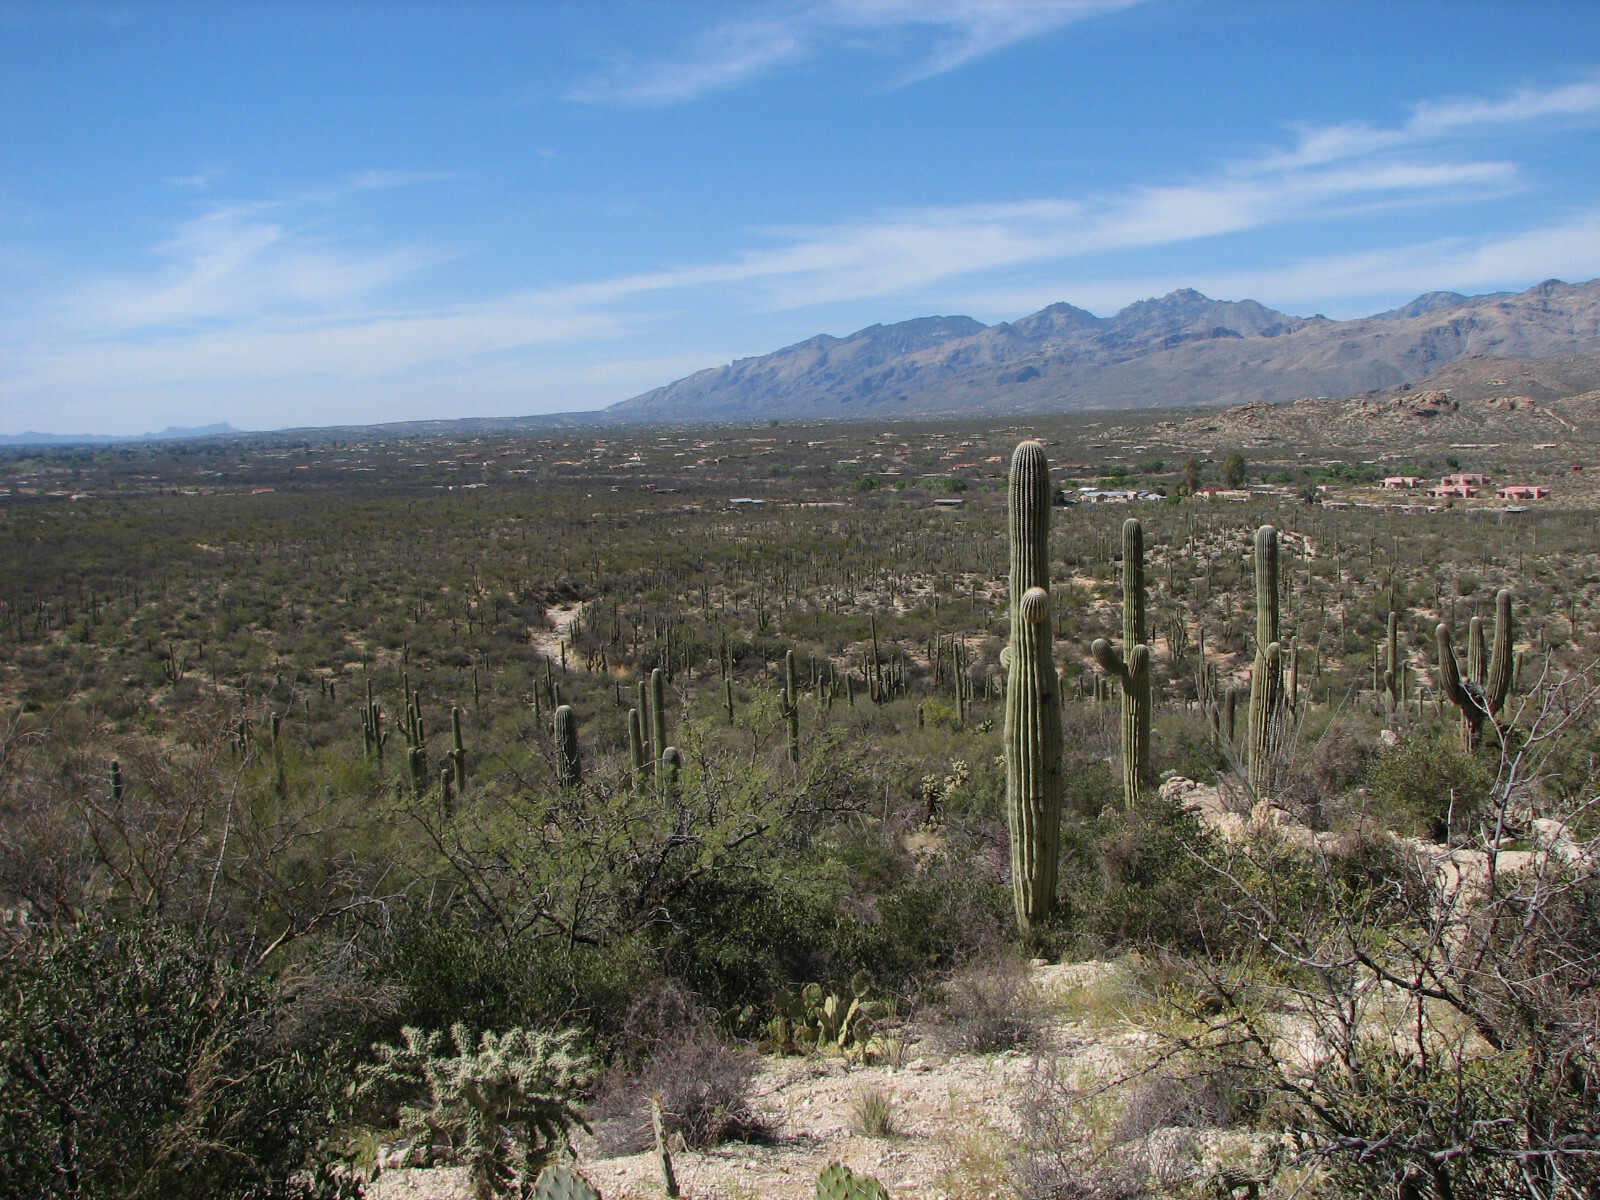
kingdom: Plantae
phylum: Tracheophyta
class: Magnoliopsida
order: Caryophyllales
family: Cactaceae
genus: Carnegiea
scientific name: Carnegiea gigantea
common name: Saguaro
